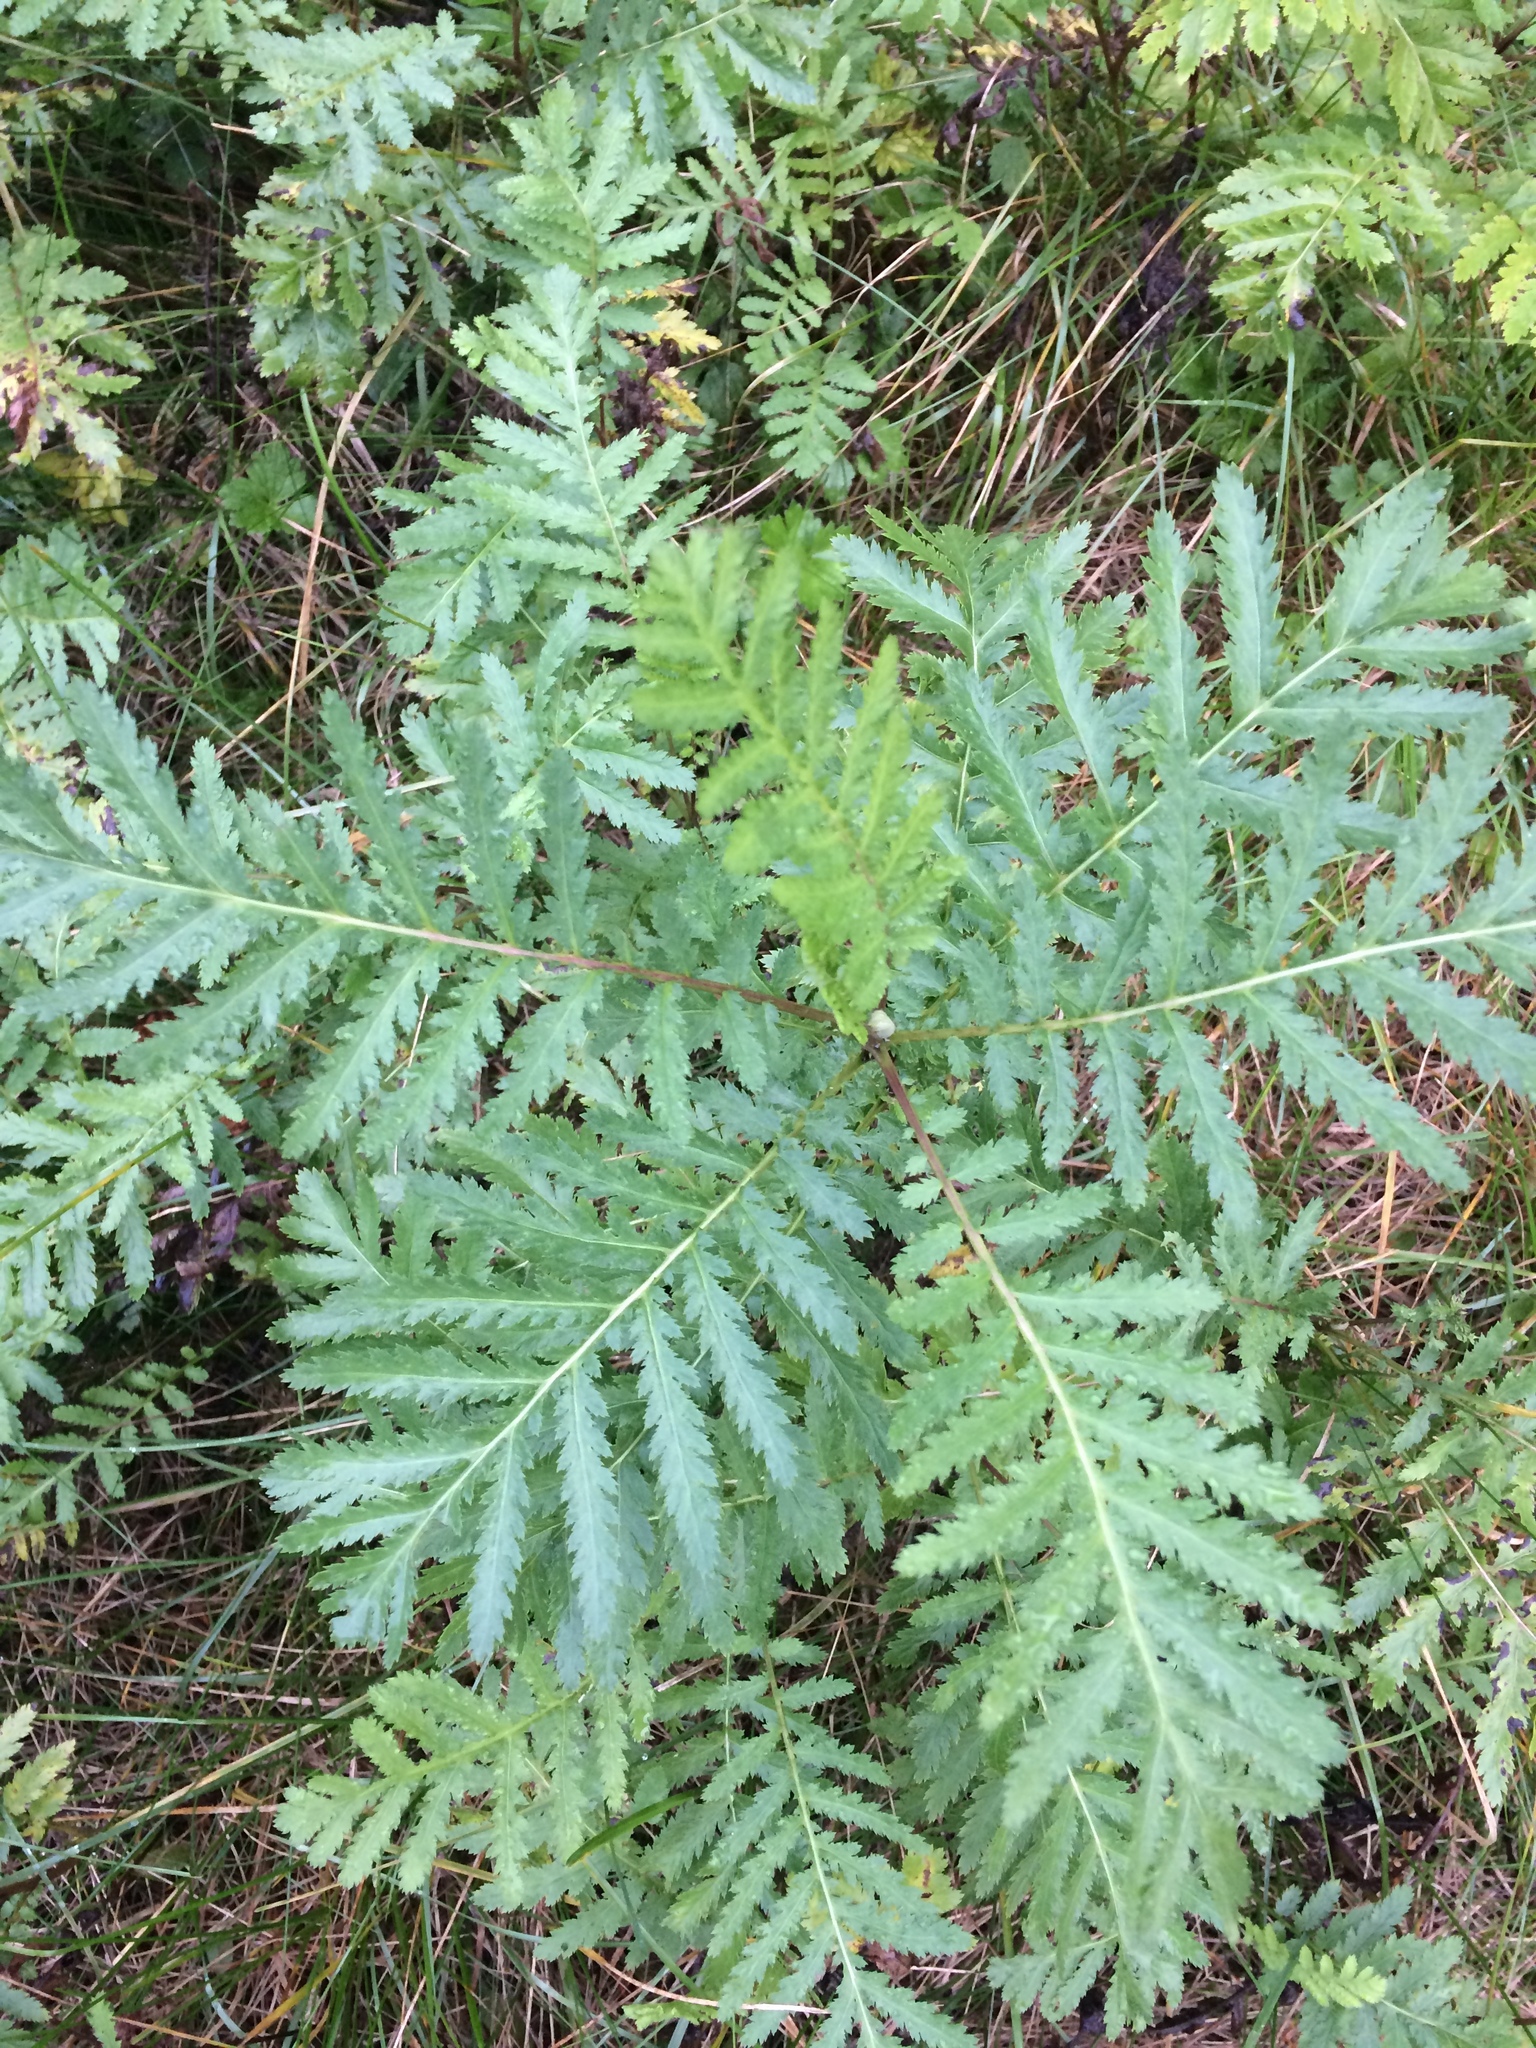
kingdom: Plantae
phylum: Tracheophyta
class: Magnoliopsida
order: Asterales
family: Asteraceae
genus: Tanacetum
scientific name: Tanacetum vulgare
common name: Common tansy
